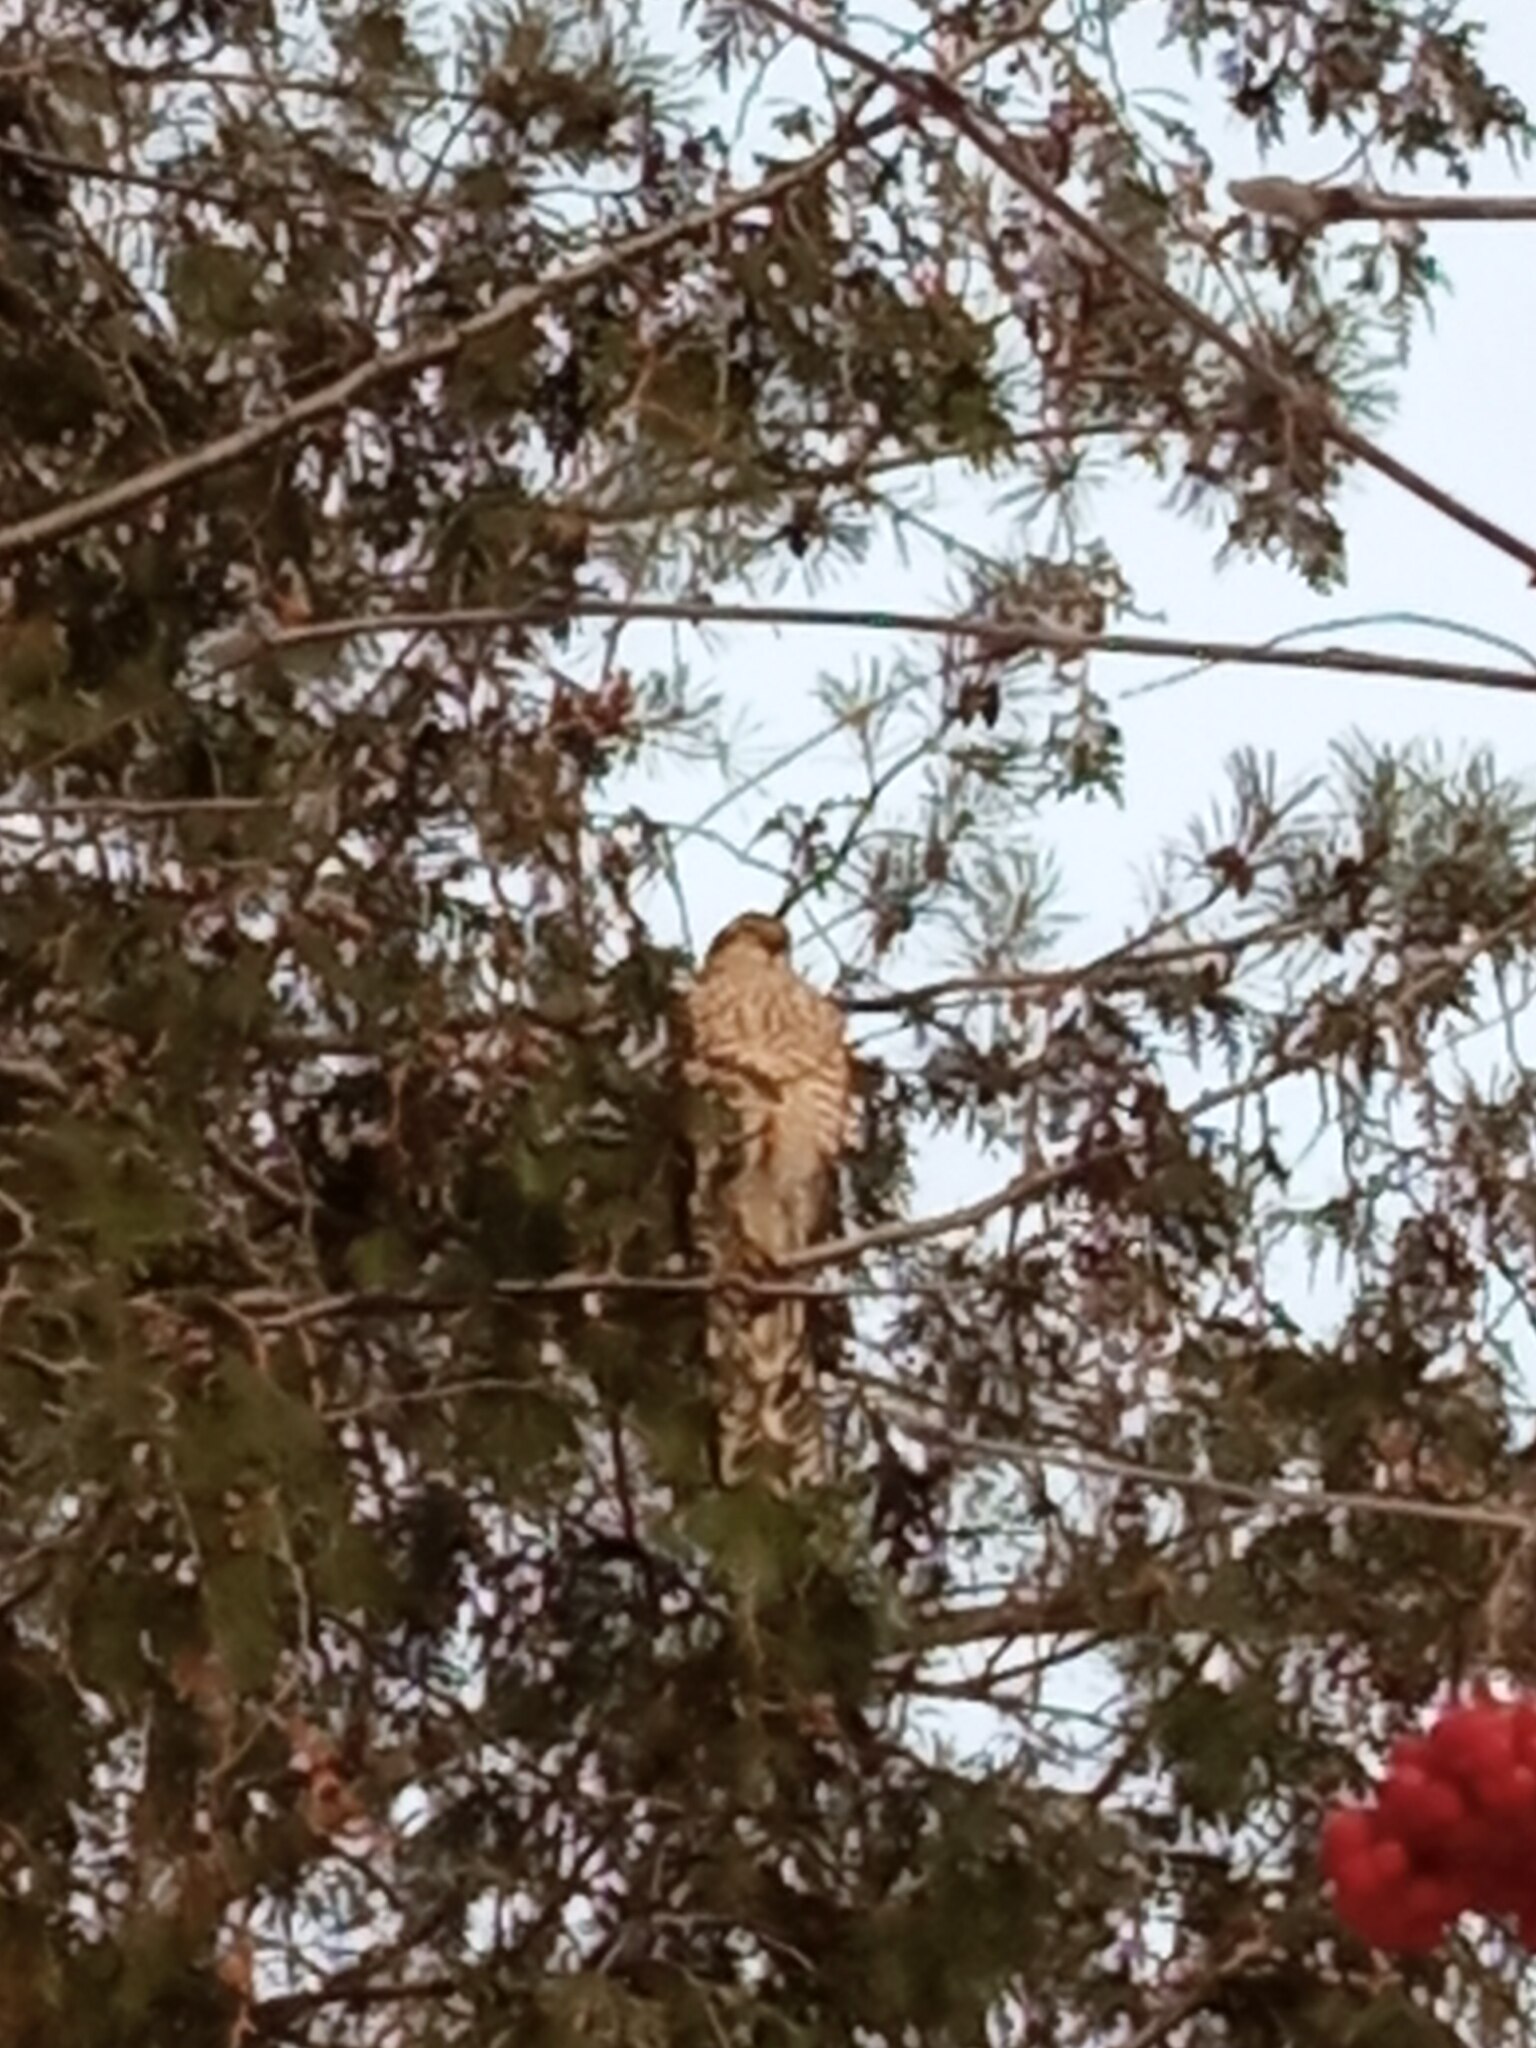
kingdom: Animalia
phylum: Chordata
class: Aves
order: Accipitriformes
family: Accipitridae
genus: Accipiter
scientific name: Accipiter nisus
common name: Eurasian sparrowhawk
